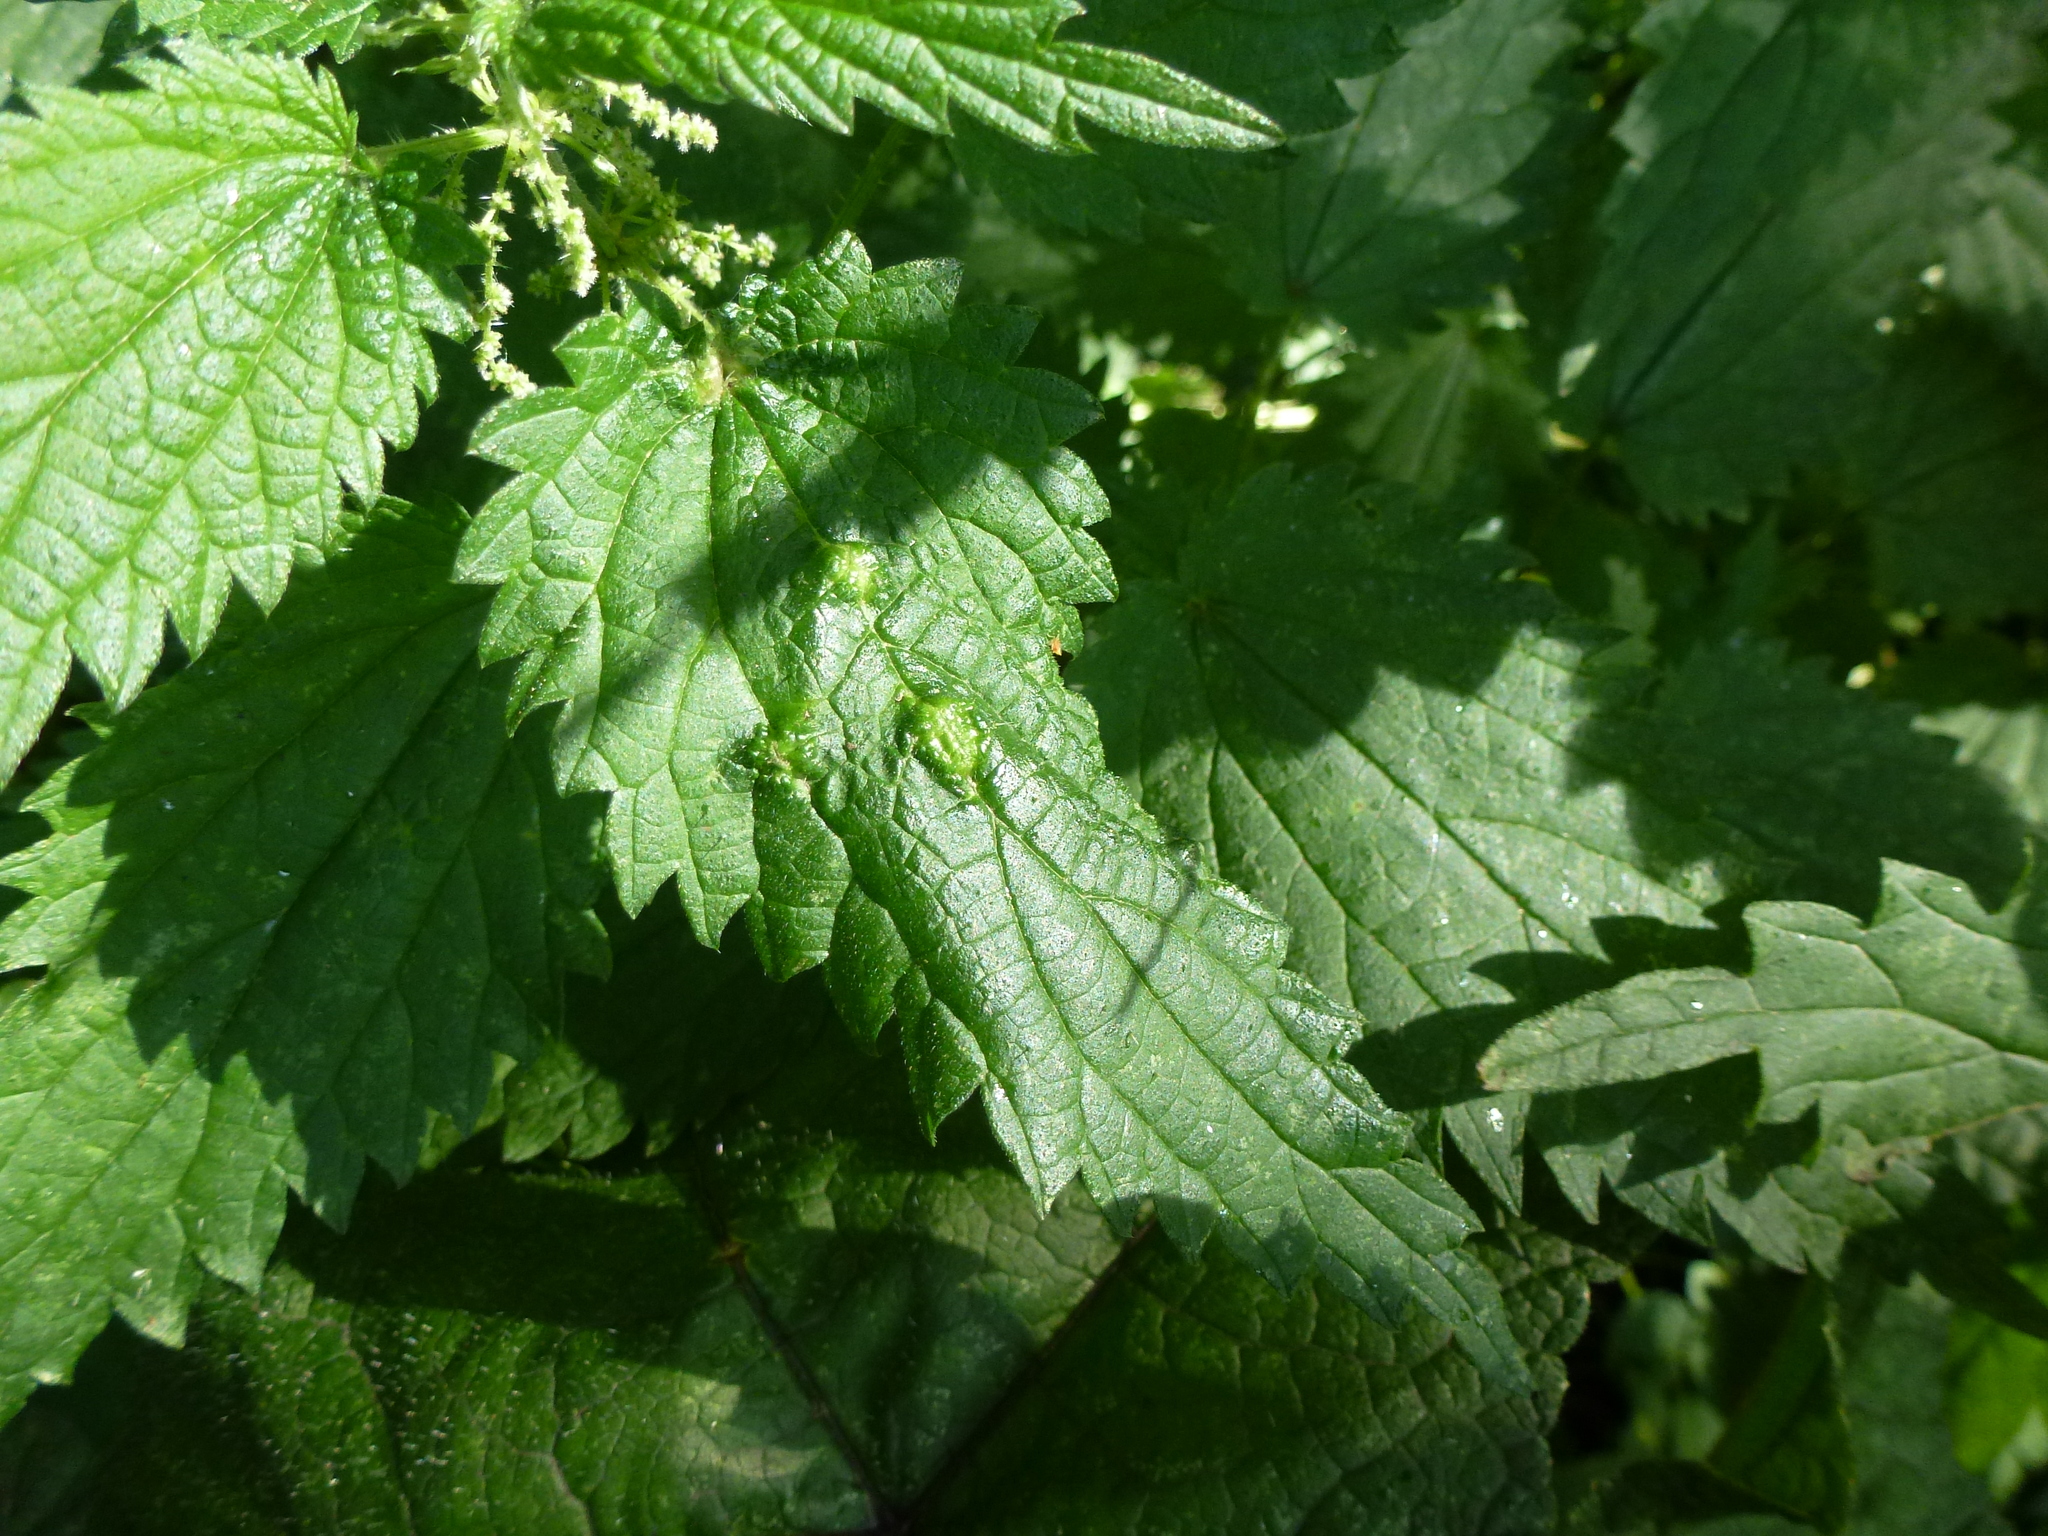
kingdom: Animalia
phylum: Arthropoda
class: Insecta
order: Diptera
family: Cecidomyiidae
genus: Dasineura
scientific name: Dasineura urticae
